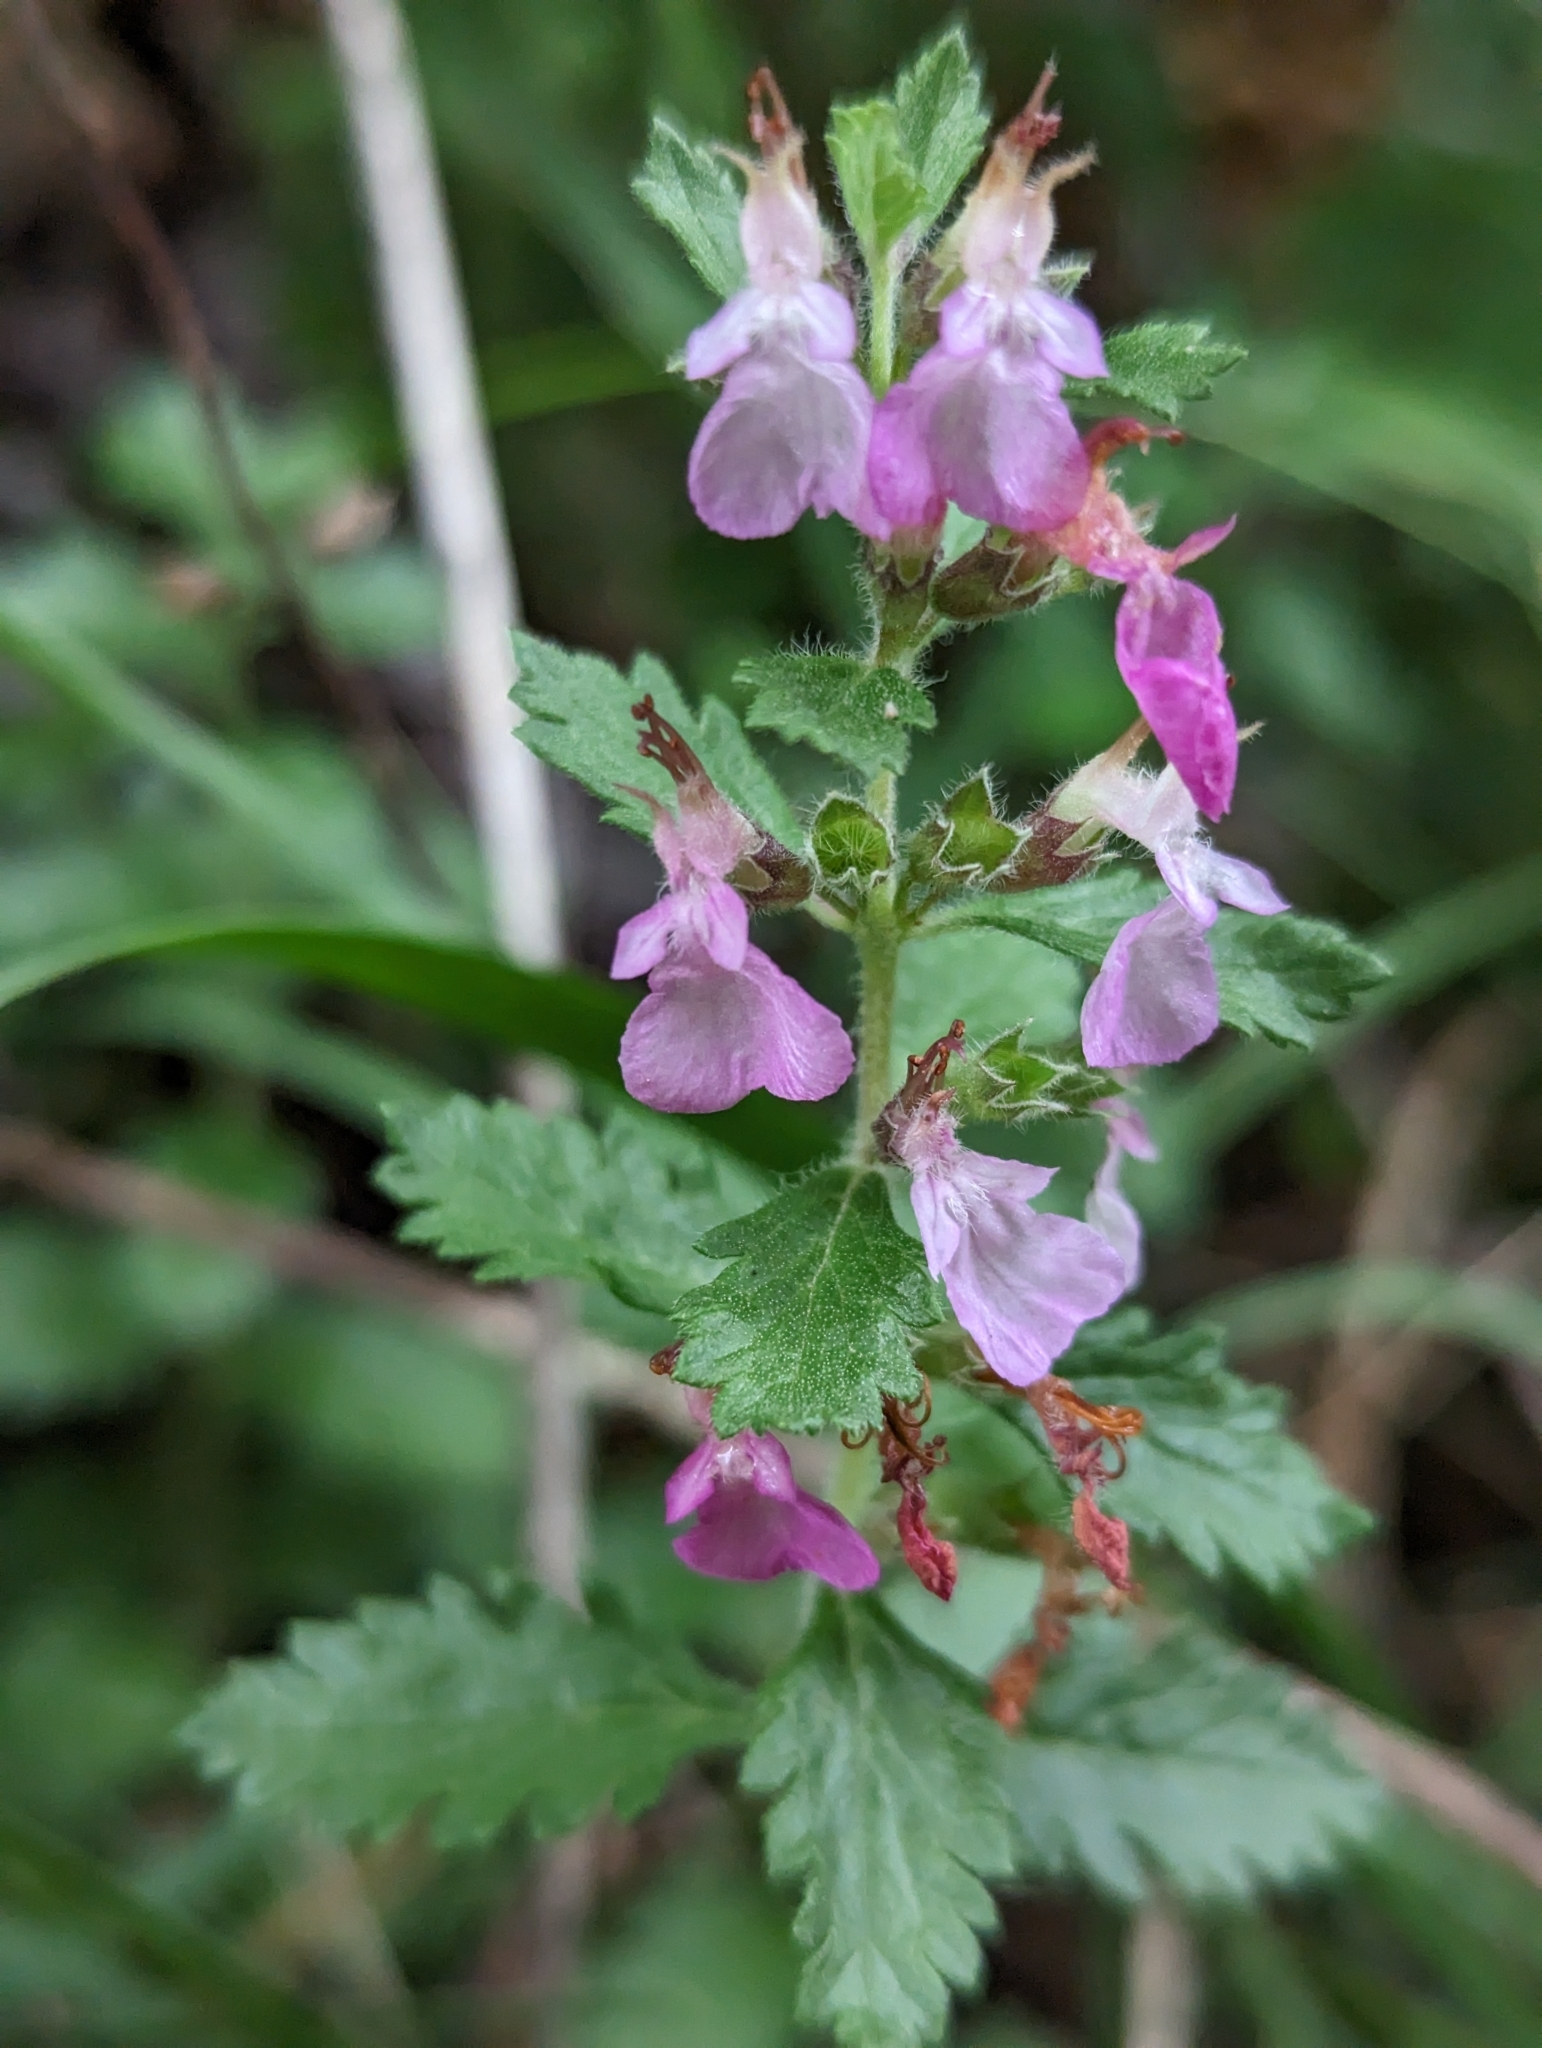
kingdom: Plantae
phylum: Tracheophyta
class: Magnoliopsida
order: Lamiales
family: Lamiaceae
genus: Teucrium
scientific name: Teucrium chamaedrys
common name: Wall germander
